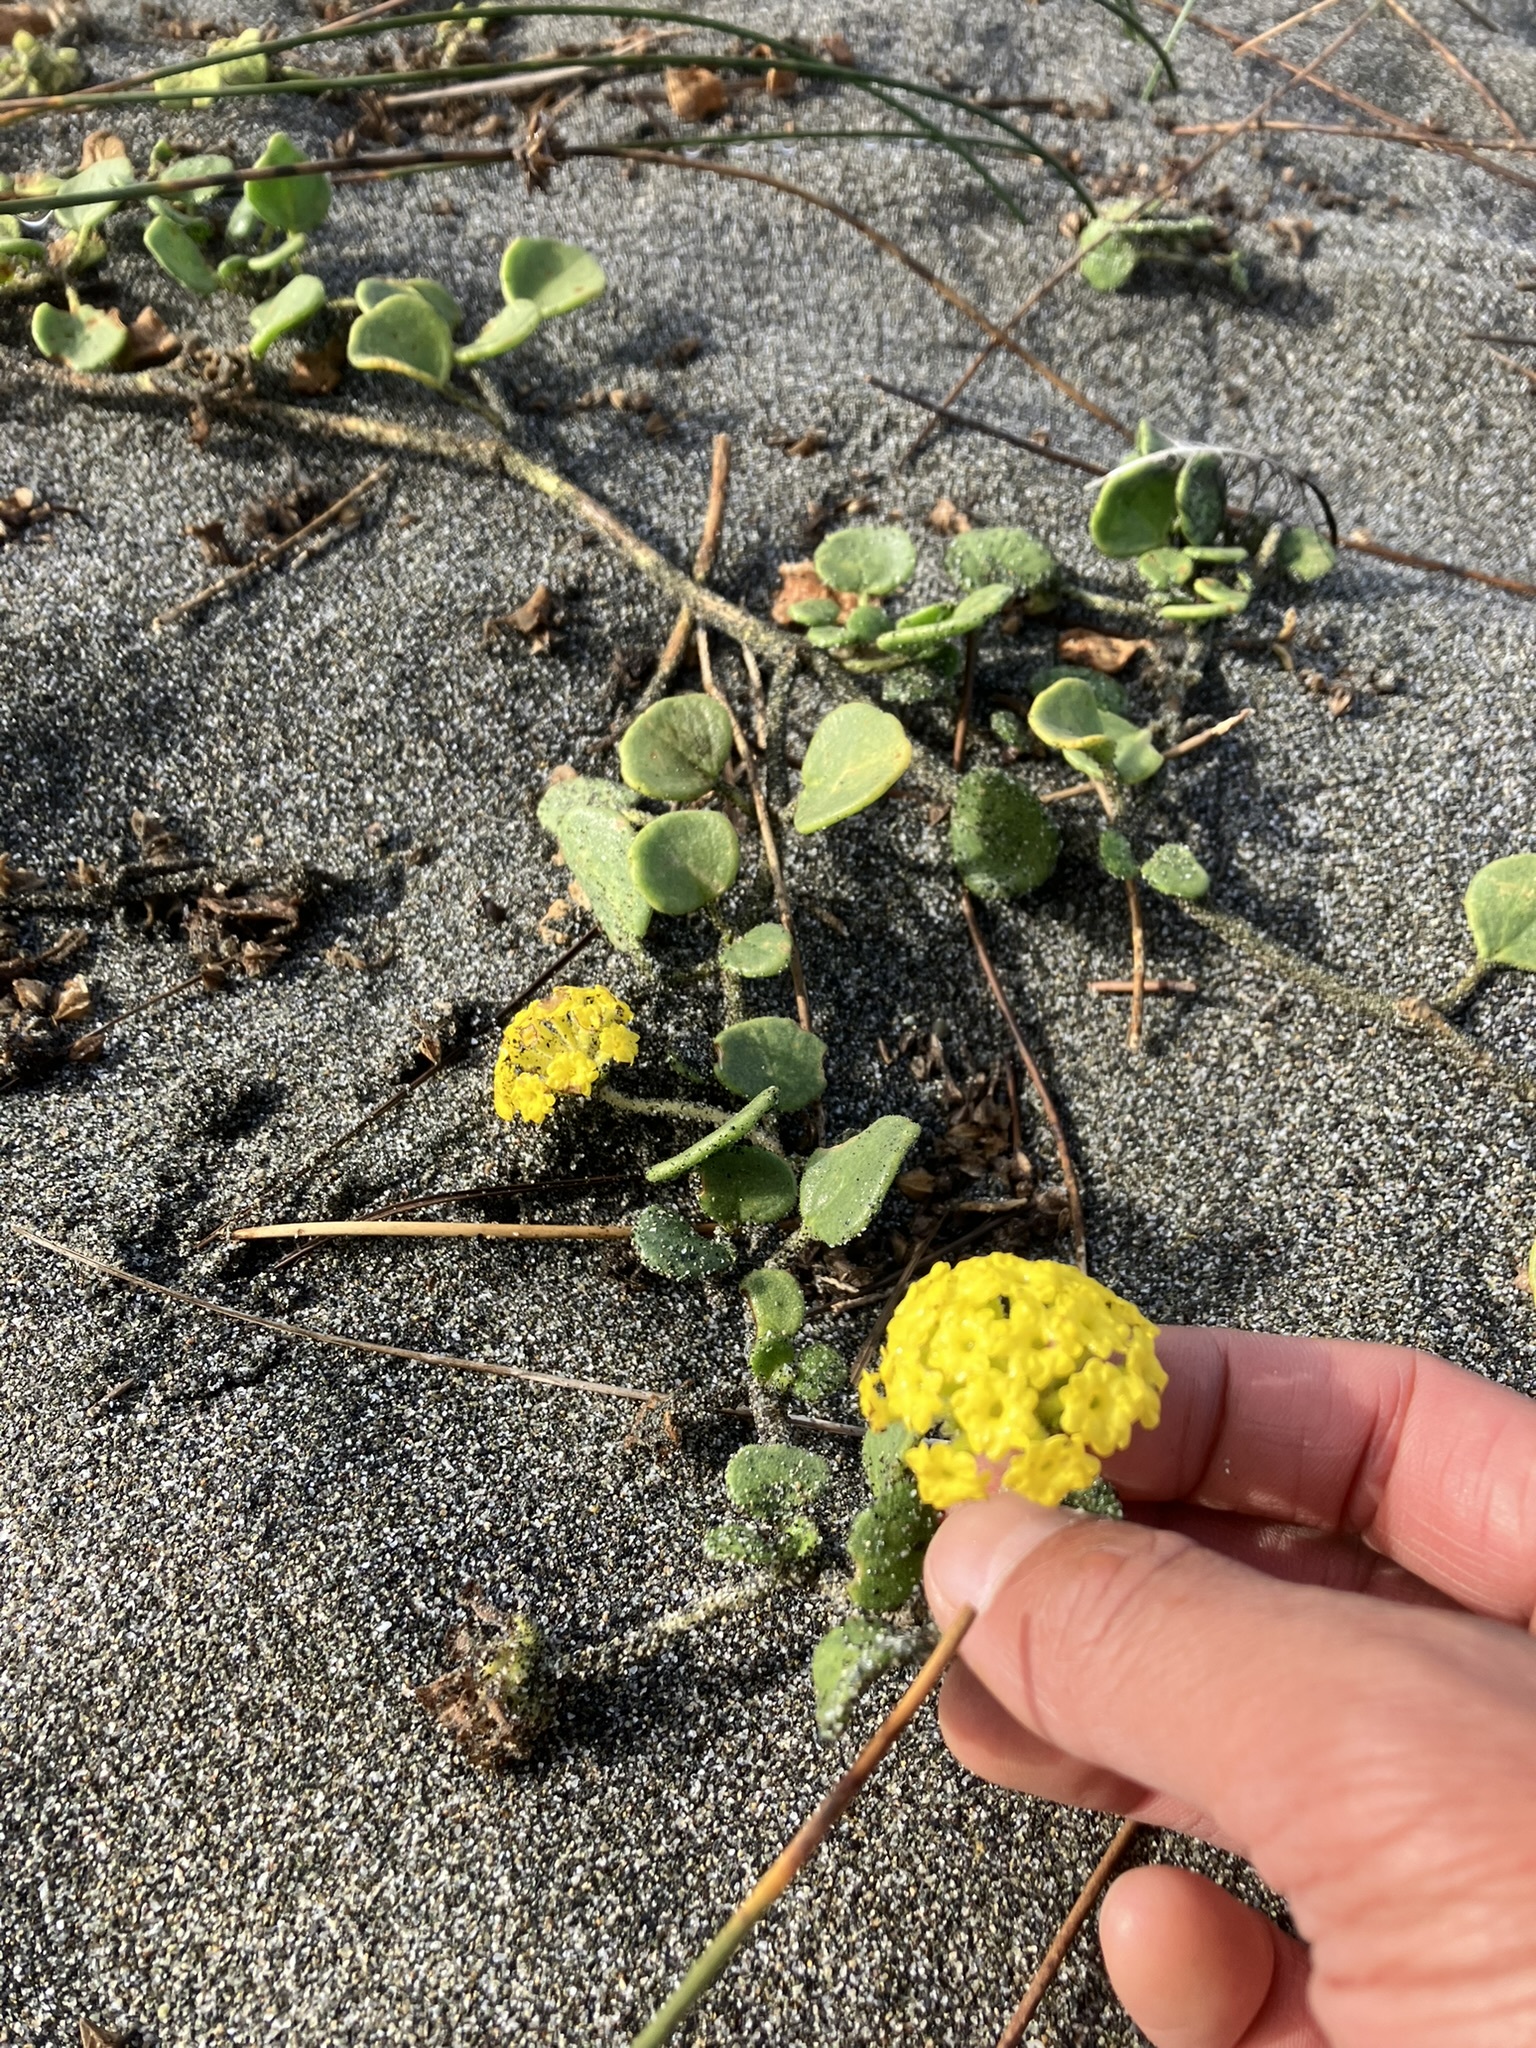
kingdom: Plantae
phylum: Tracheophyta
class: Magnoliopsida
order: Caryophyllales
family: Nyctaginaceae
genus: Abronia
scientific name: Abronia latifolia
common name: Yellow sand-verbena
